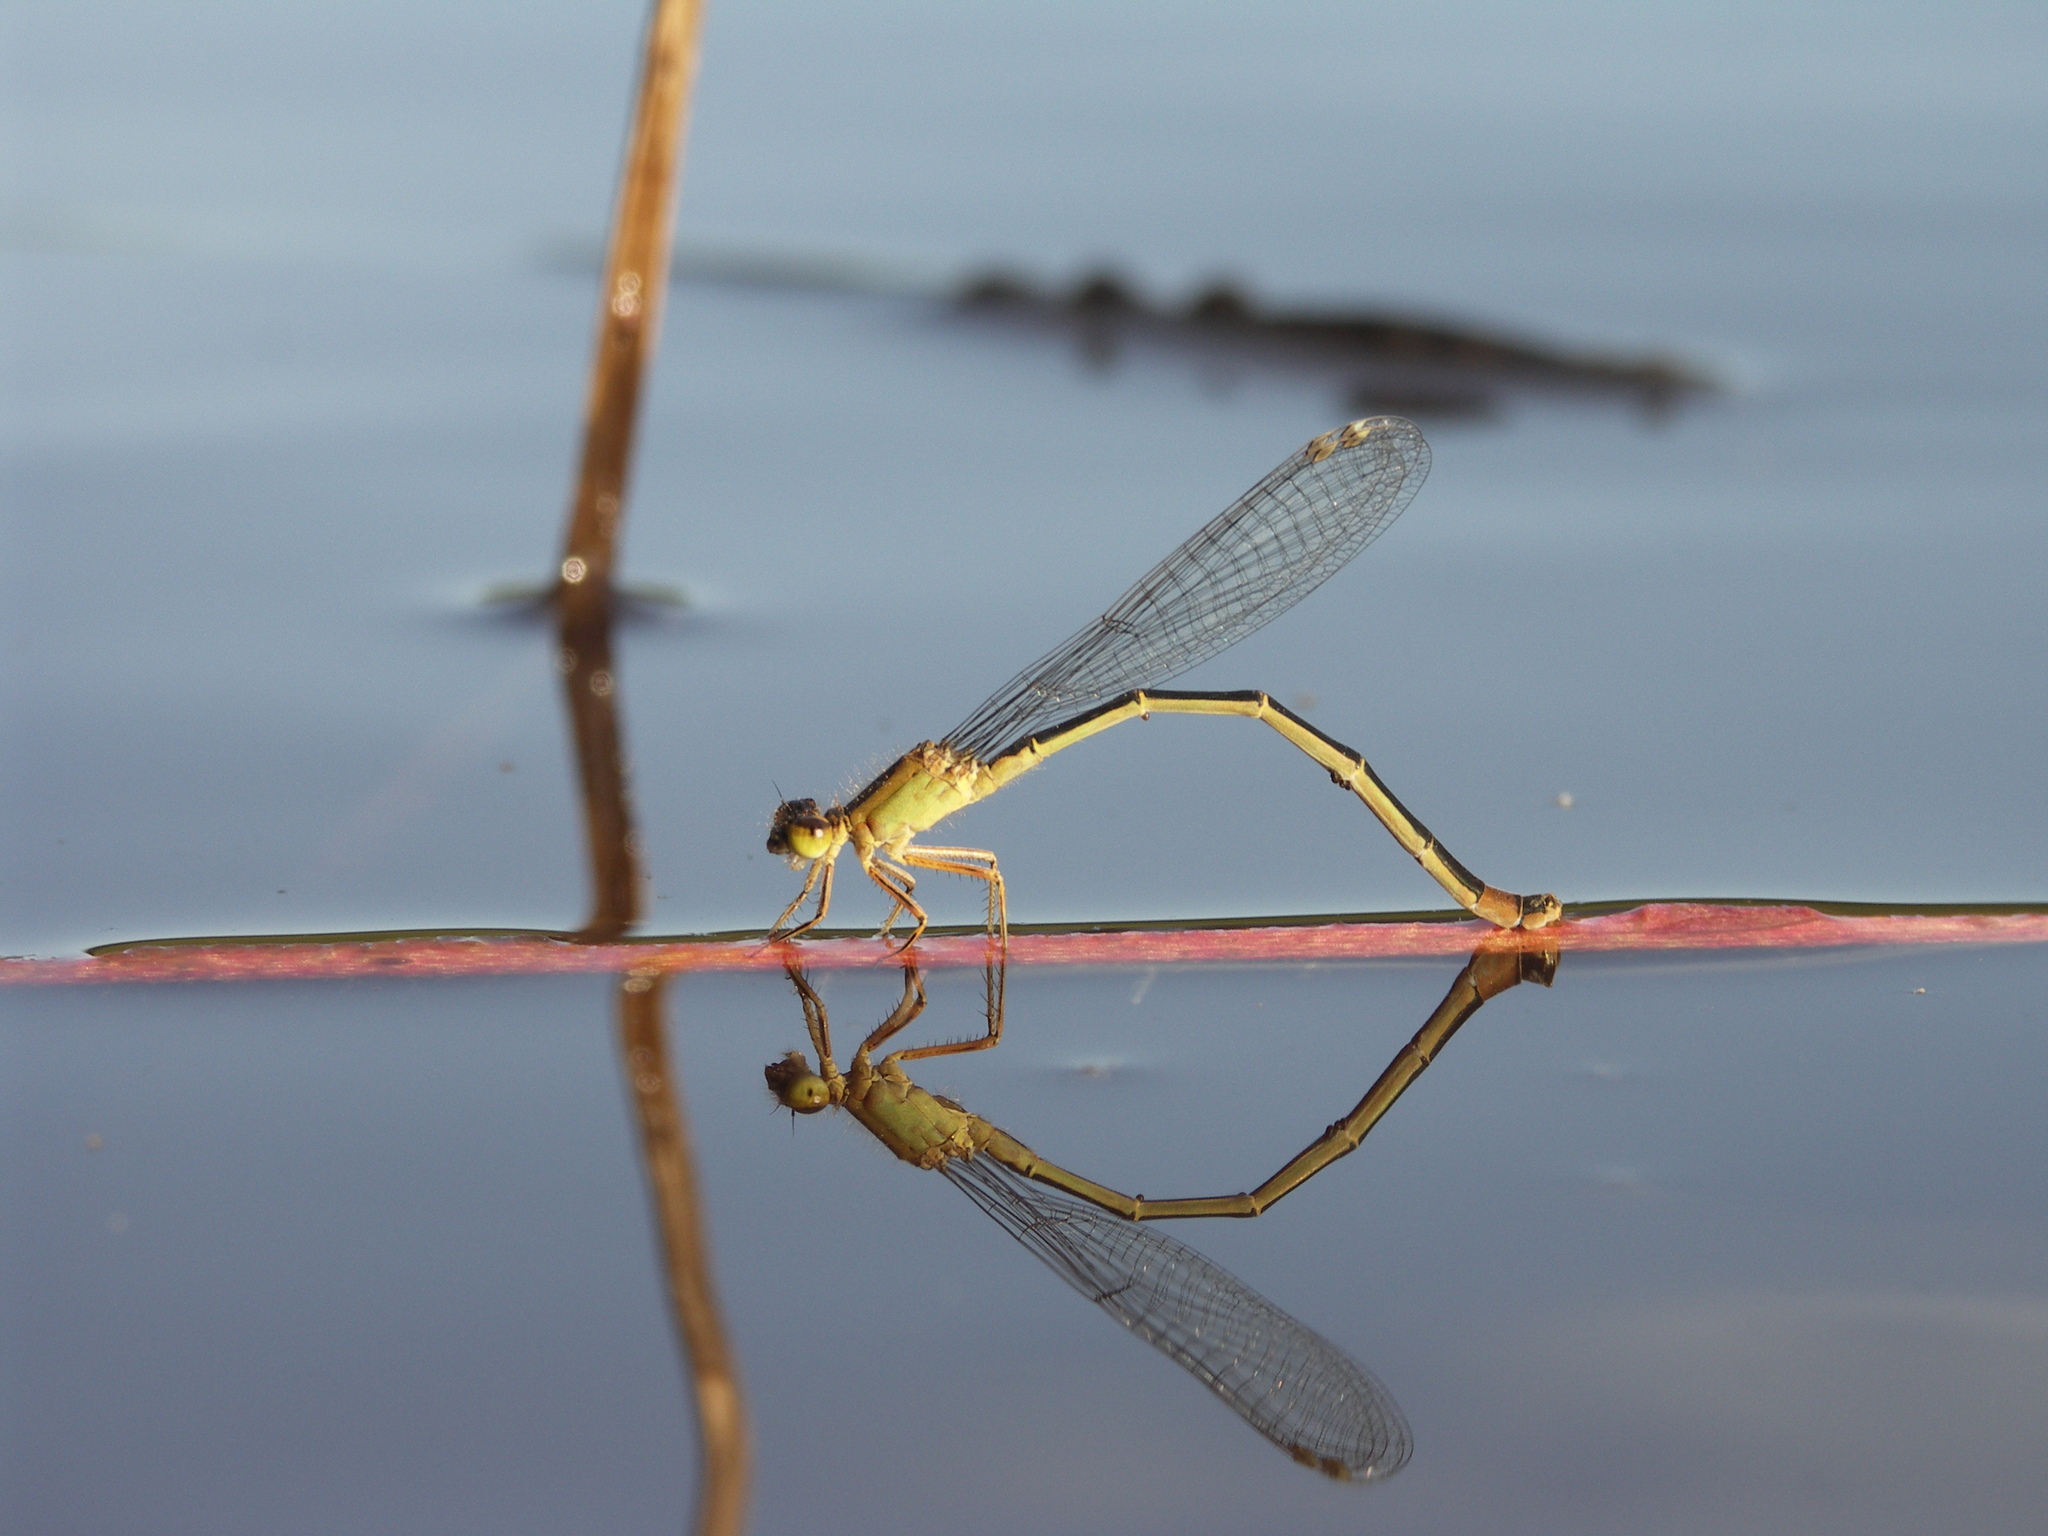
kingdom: Animalia
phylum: Arthropoda
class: Insecta
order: Odonata
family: Coenagrionidae
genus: Ischnura
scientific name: Ischnura elegans
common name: Blue-tailed damselfly
